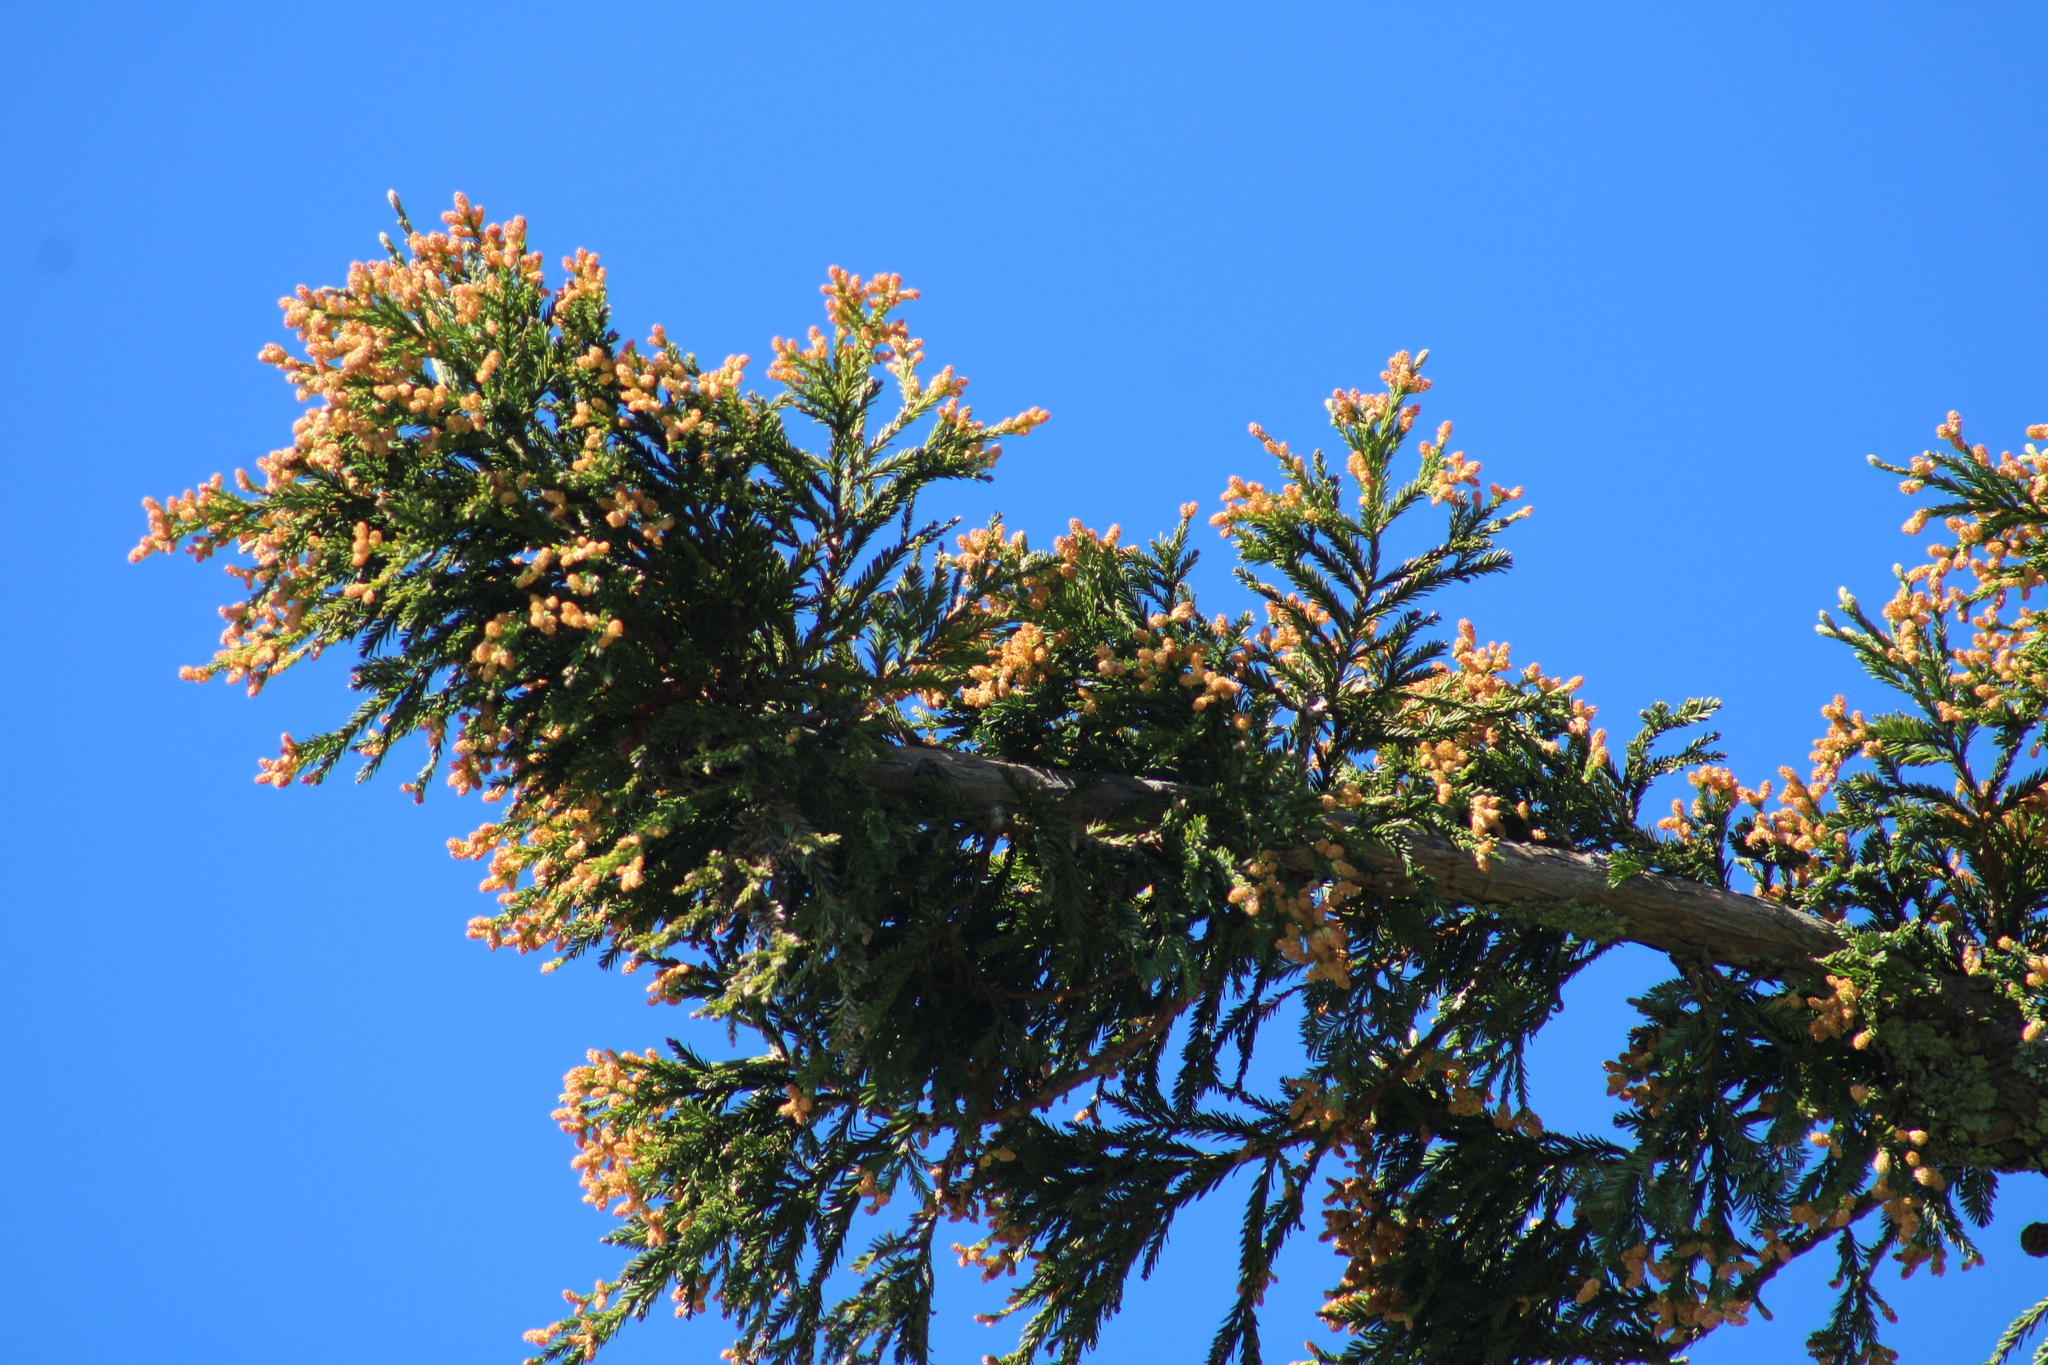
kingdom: Plantae
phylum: Tracheophyta
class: Pinopsida
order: Pinales
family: Cupressaceae
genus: Sequoia
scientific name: Sequoia sempervirens
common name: Coast redwood
